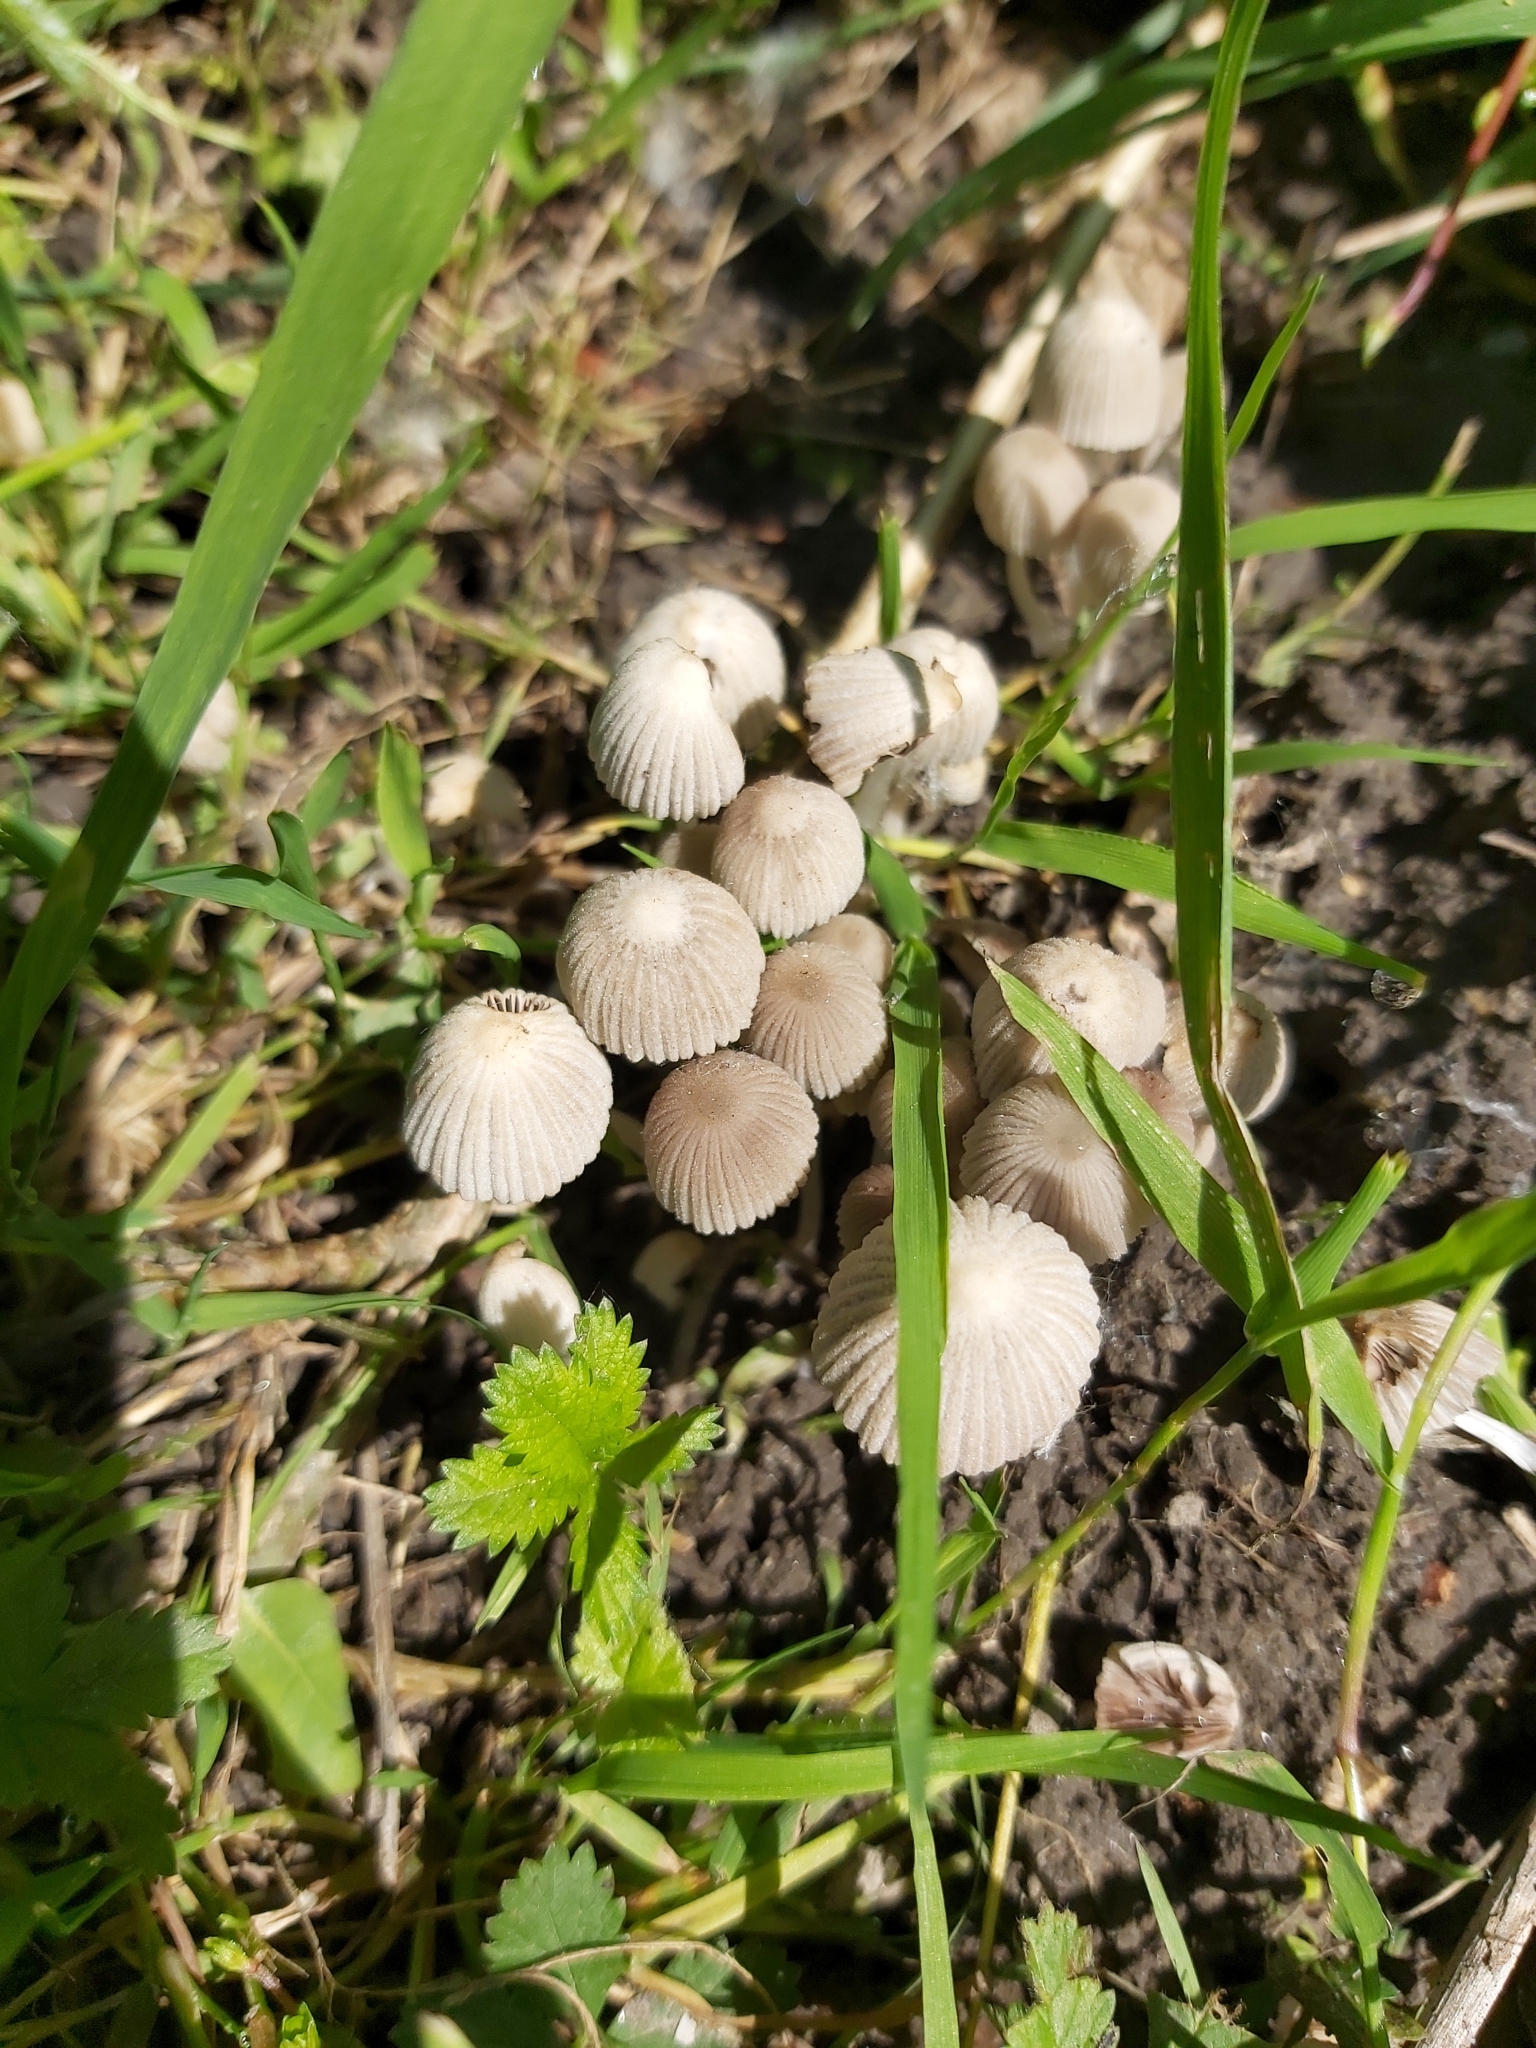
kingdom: Fungi
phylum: Basidiomycota
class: Agaricomycetes
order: Agaricales
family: Psathyrellaceae
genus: Coprinellus
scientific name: Coprinellus disseminatus
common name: Fairies' bonnets
